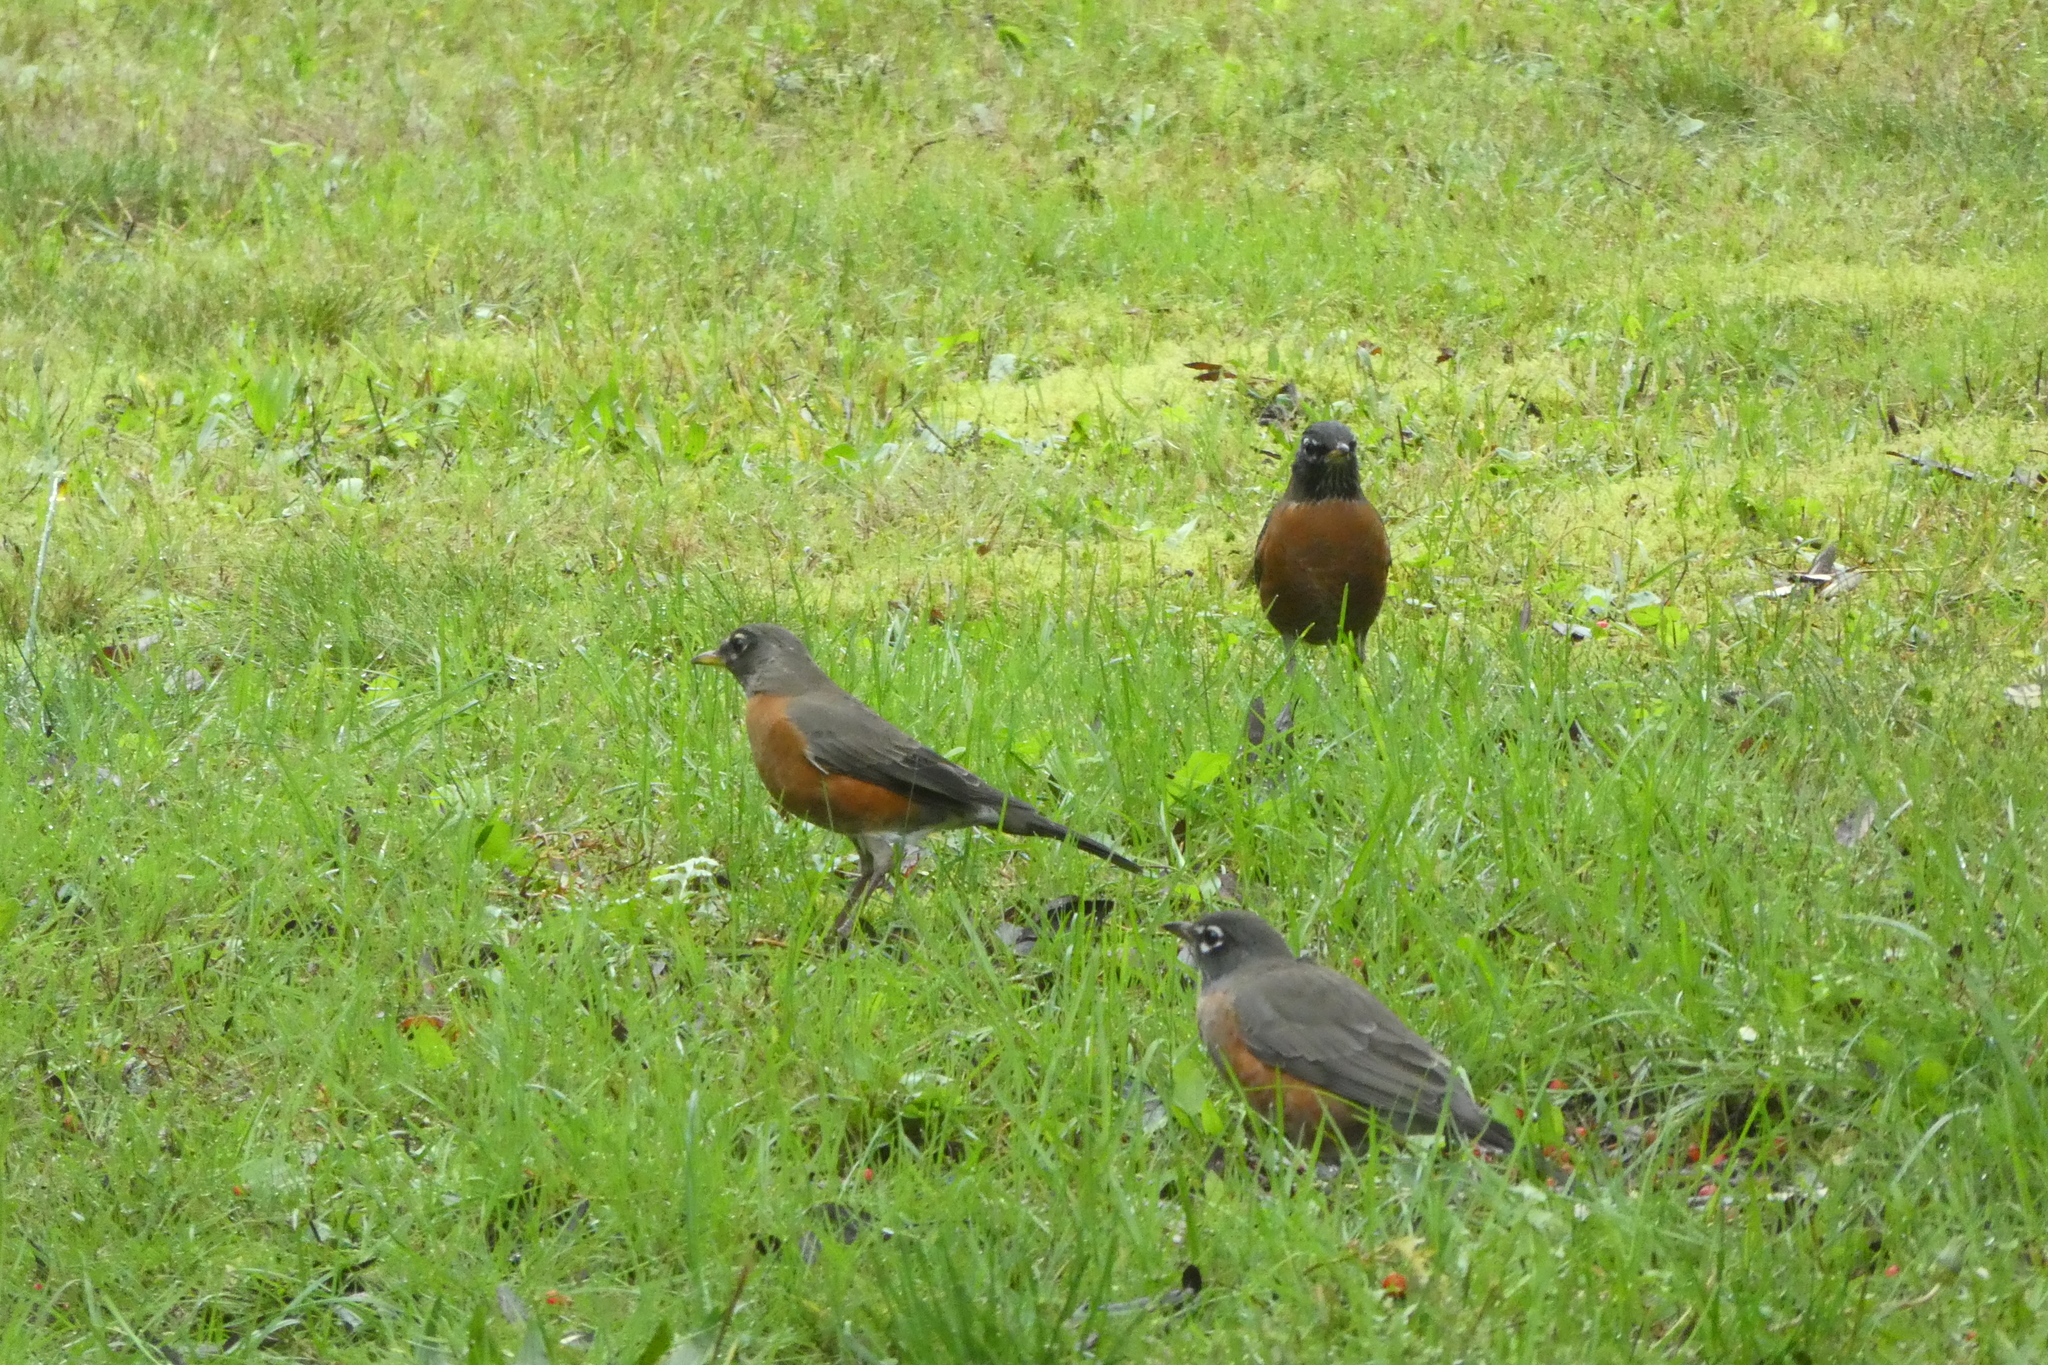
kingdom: Animalia
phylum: Chordata
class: Aves
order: Passeriformes
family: Turdidae
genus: Turdus
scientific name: Turdus migratorius
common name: American robin
